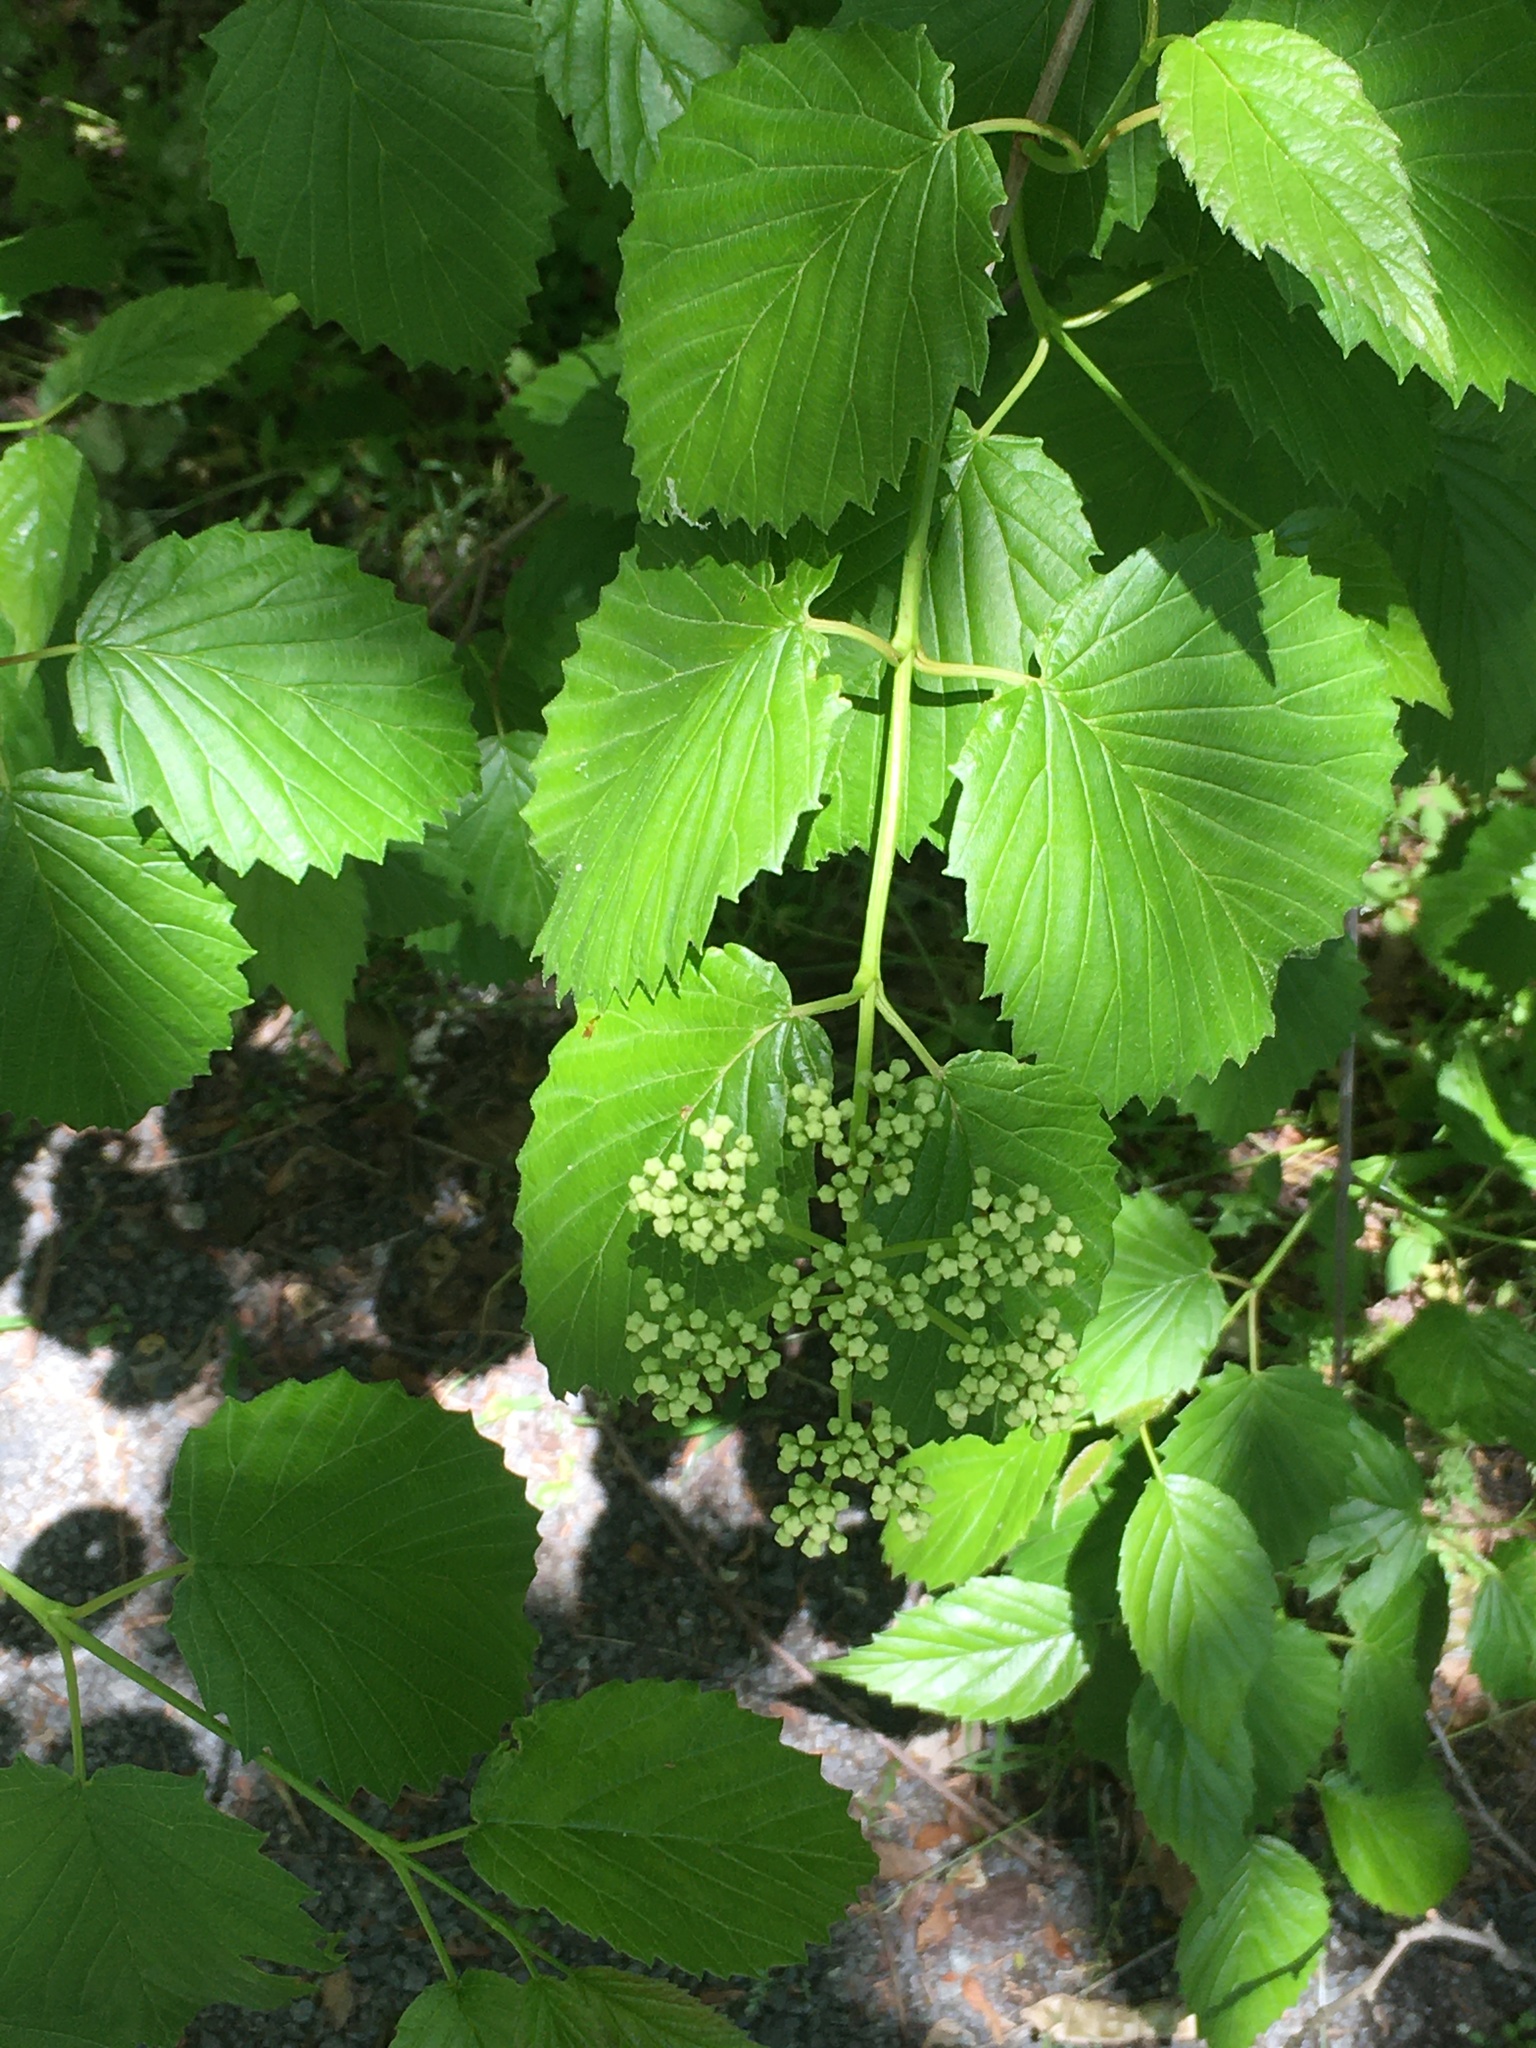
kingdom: Plantae
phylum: Tracheophyta
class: Magnoliopsida
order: Dipsacales
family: Viburnaceae
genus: Viburnum
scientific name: Viburnum dentatum
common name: Arrow-wood
